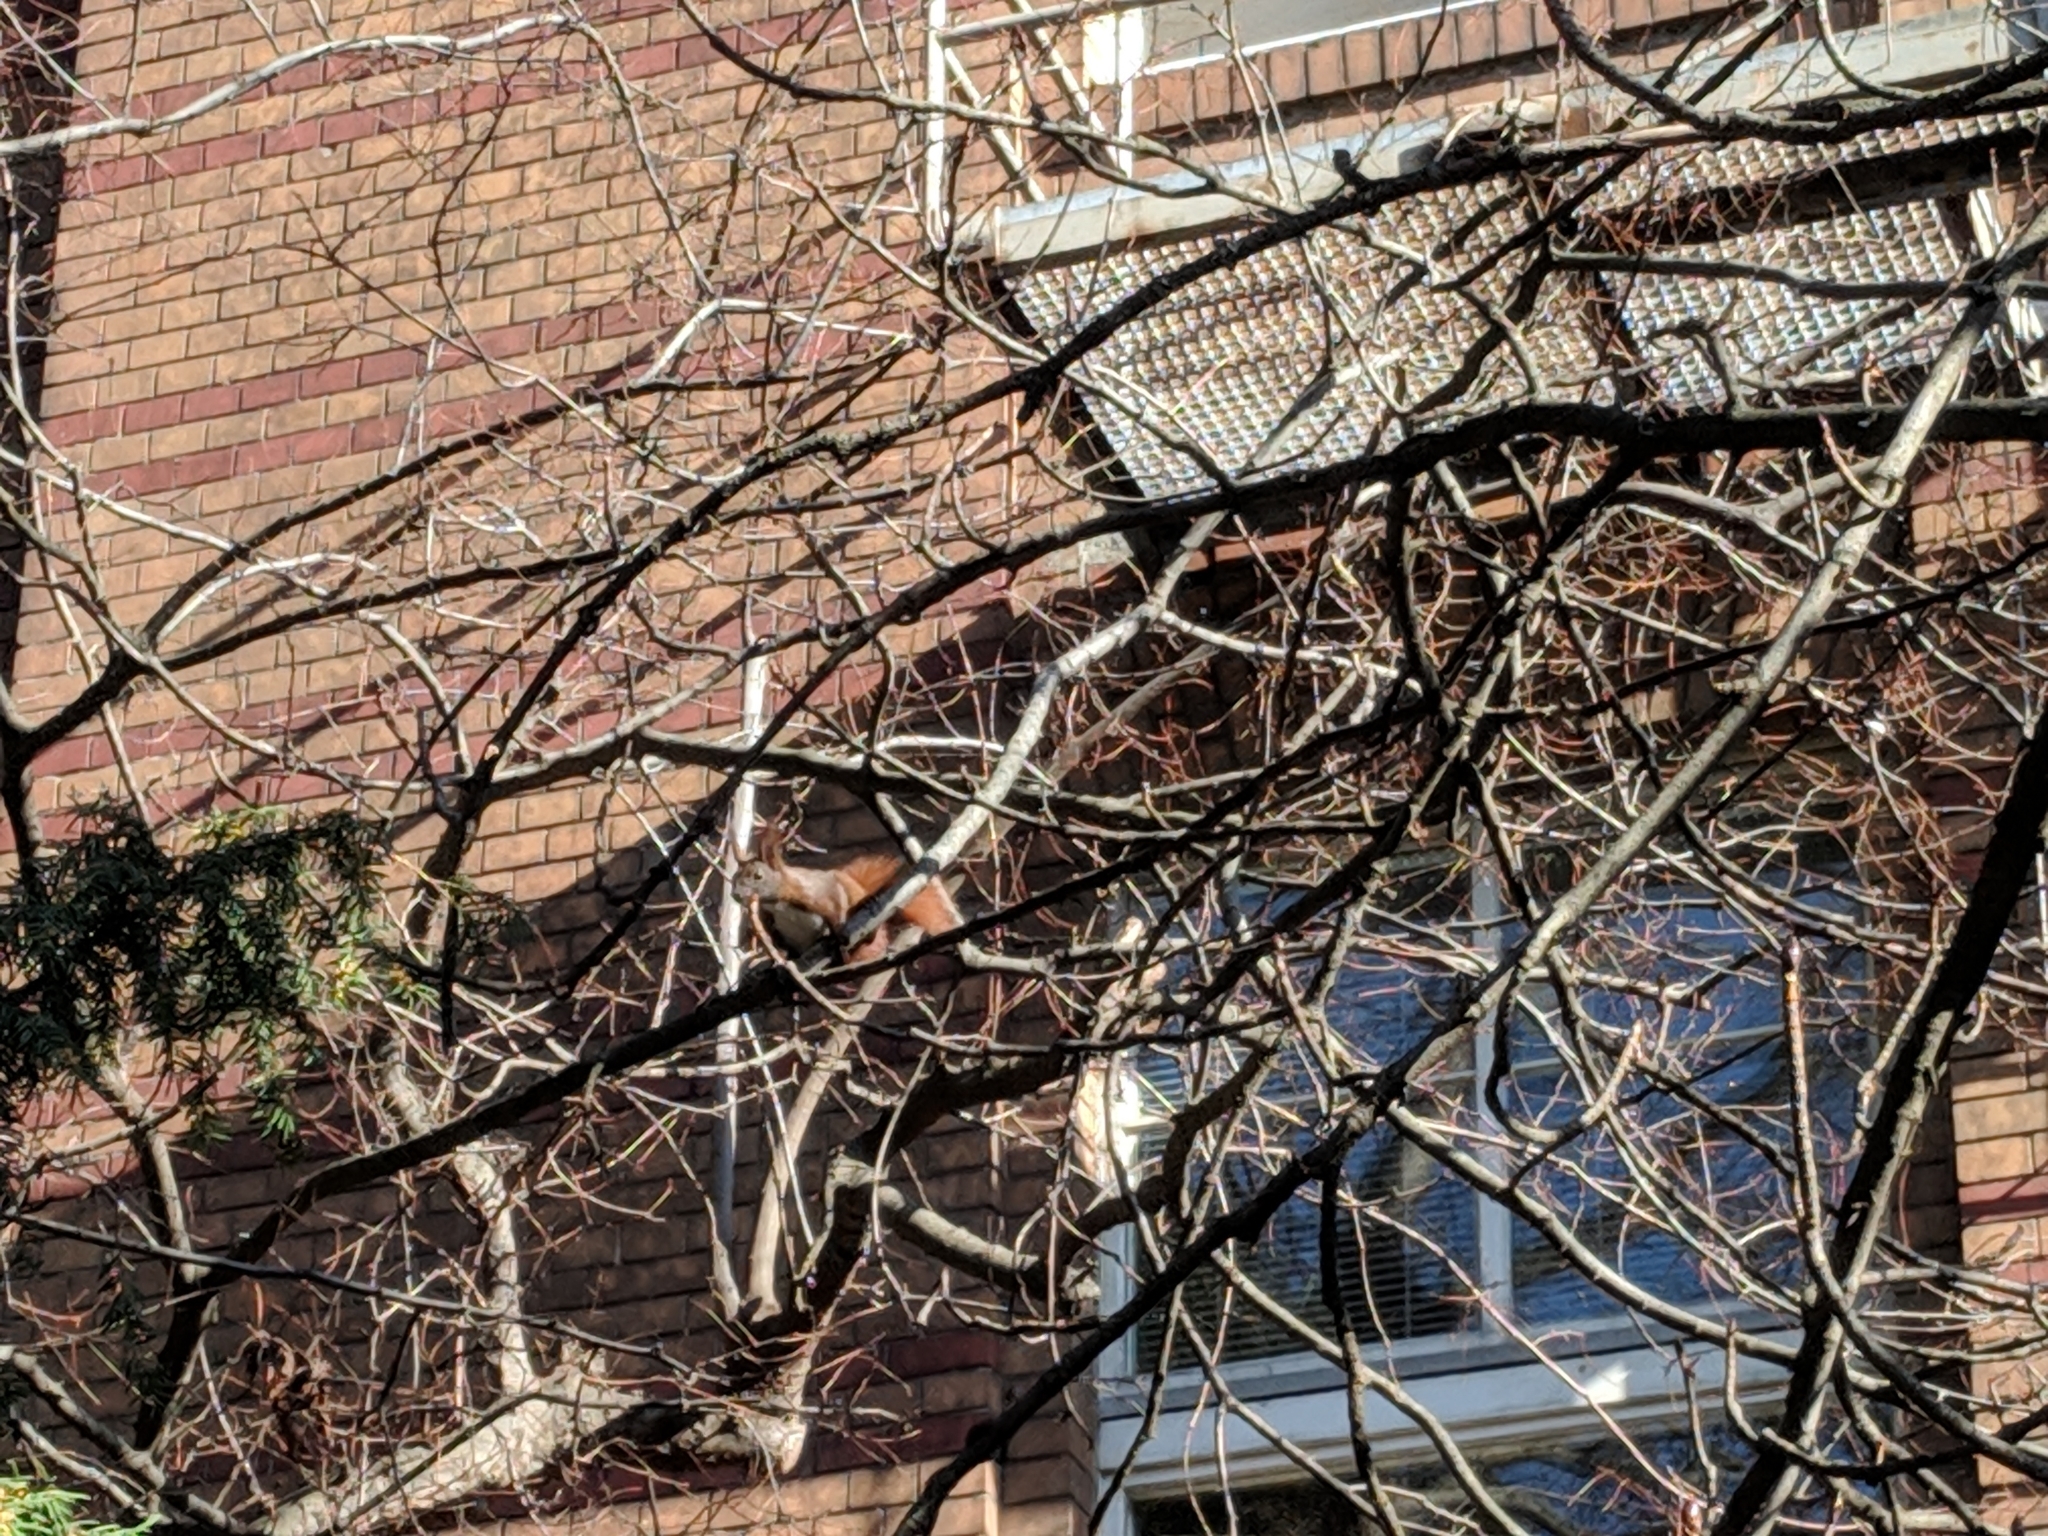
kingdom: Animalia
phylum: Chordata
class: Mammalia
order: Rodentia
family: Sciuridae
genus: Sciurus
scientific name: Sciurus vulgaris
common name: Eurasian red squirrel
